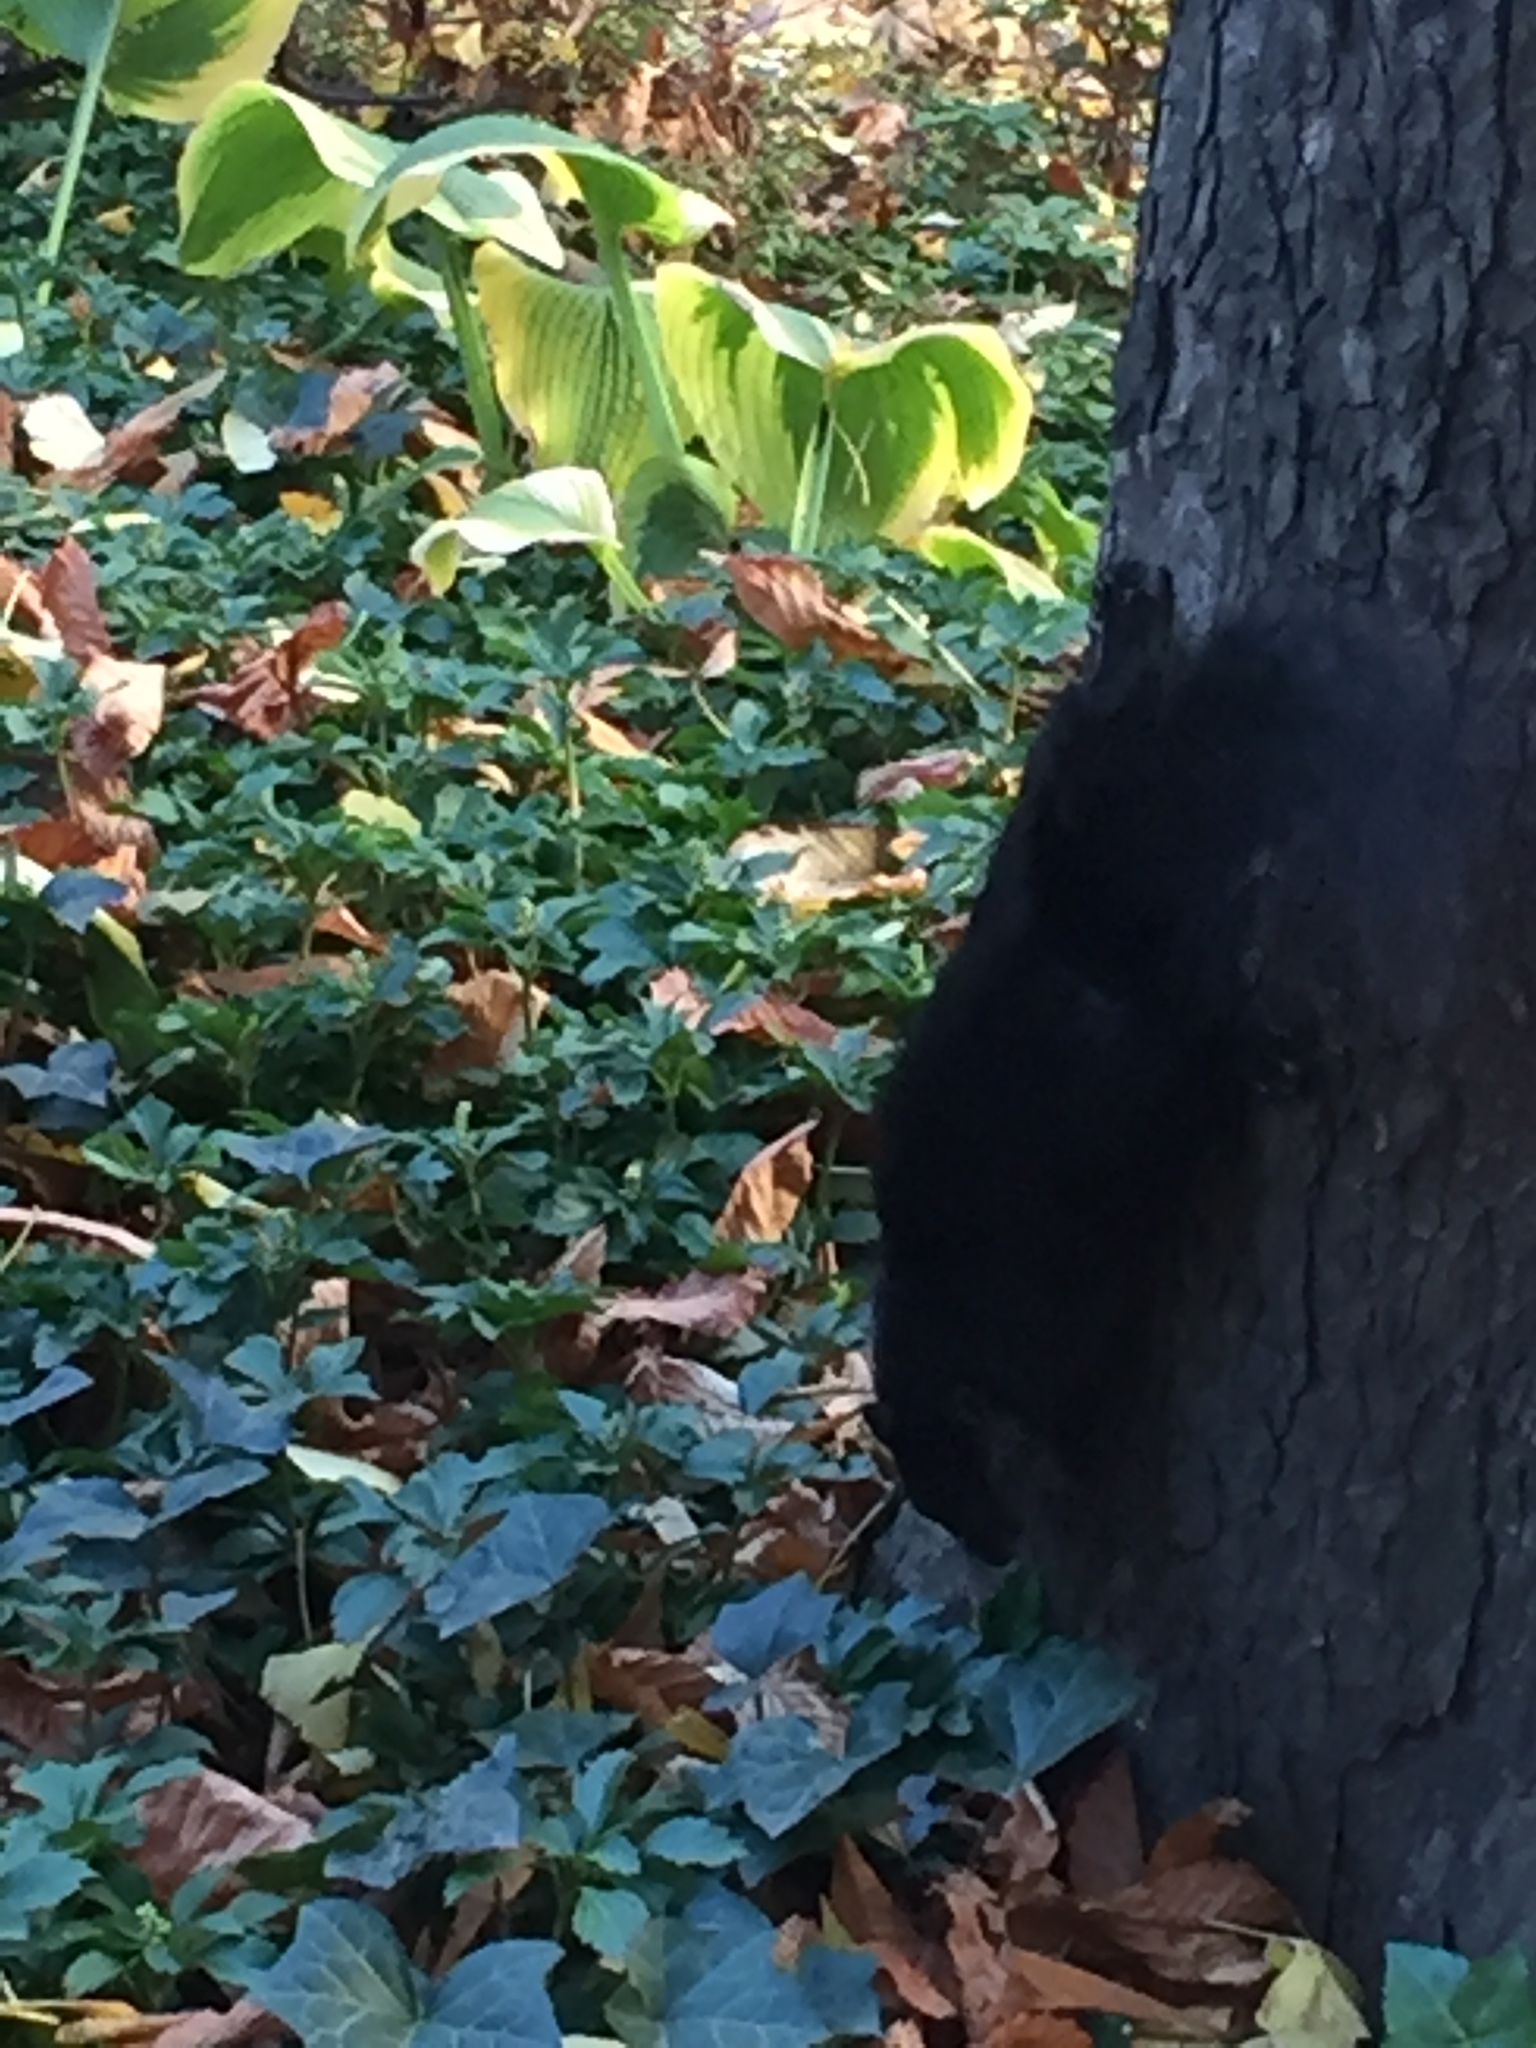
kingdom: Animalia
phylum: Chordata
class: Mammalia
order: Rodentia
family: Sciuridae
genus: Sciurus
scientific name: Sciurus carolinensis
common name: Eastern gray squirrel
